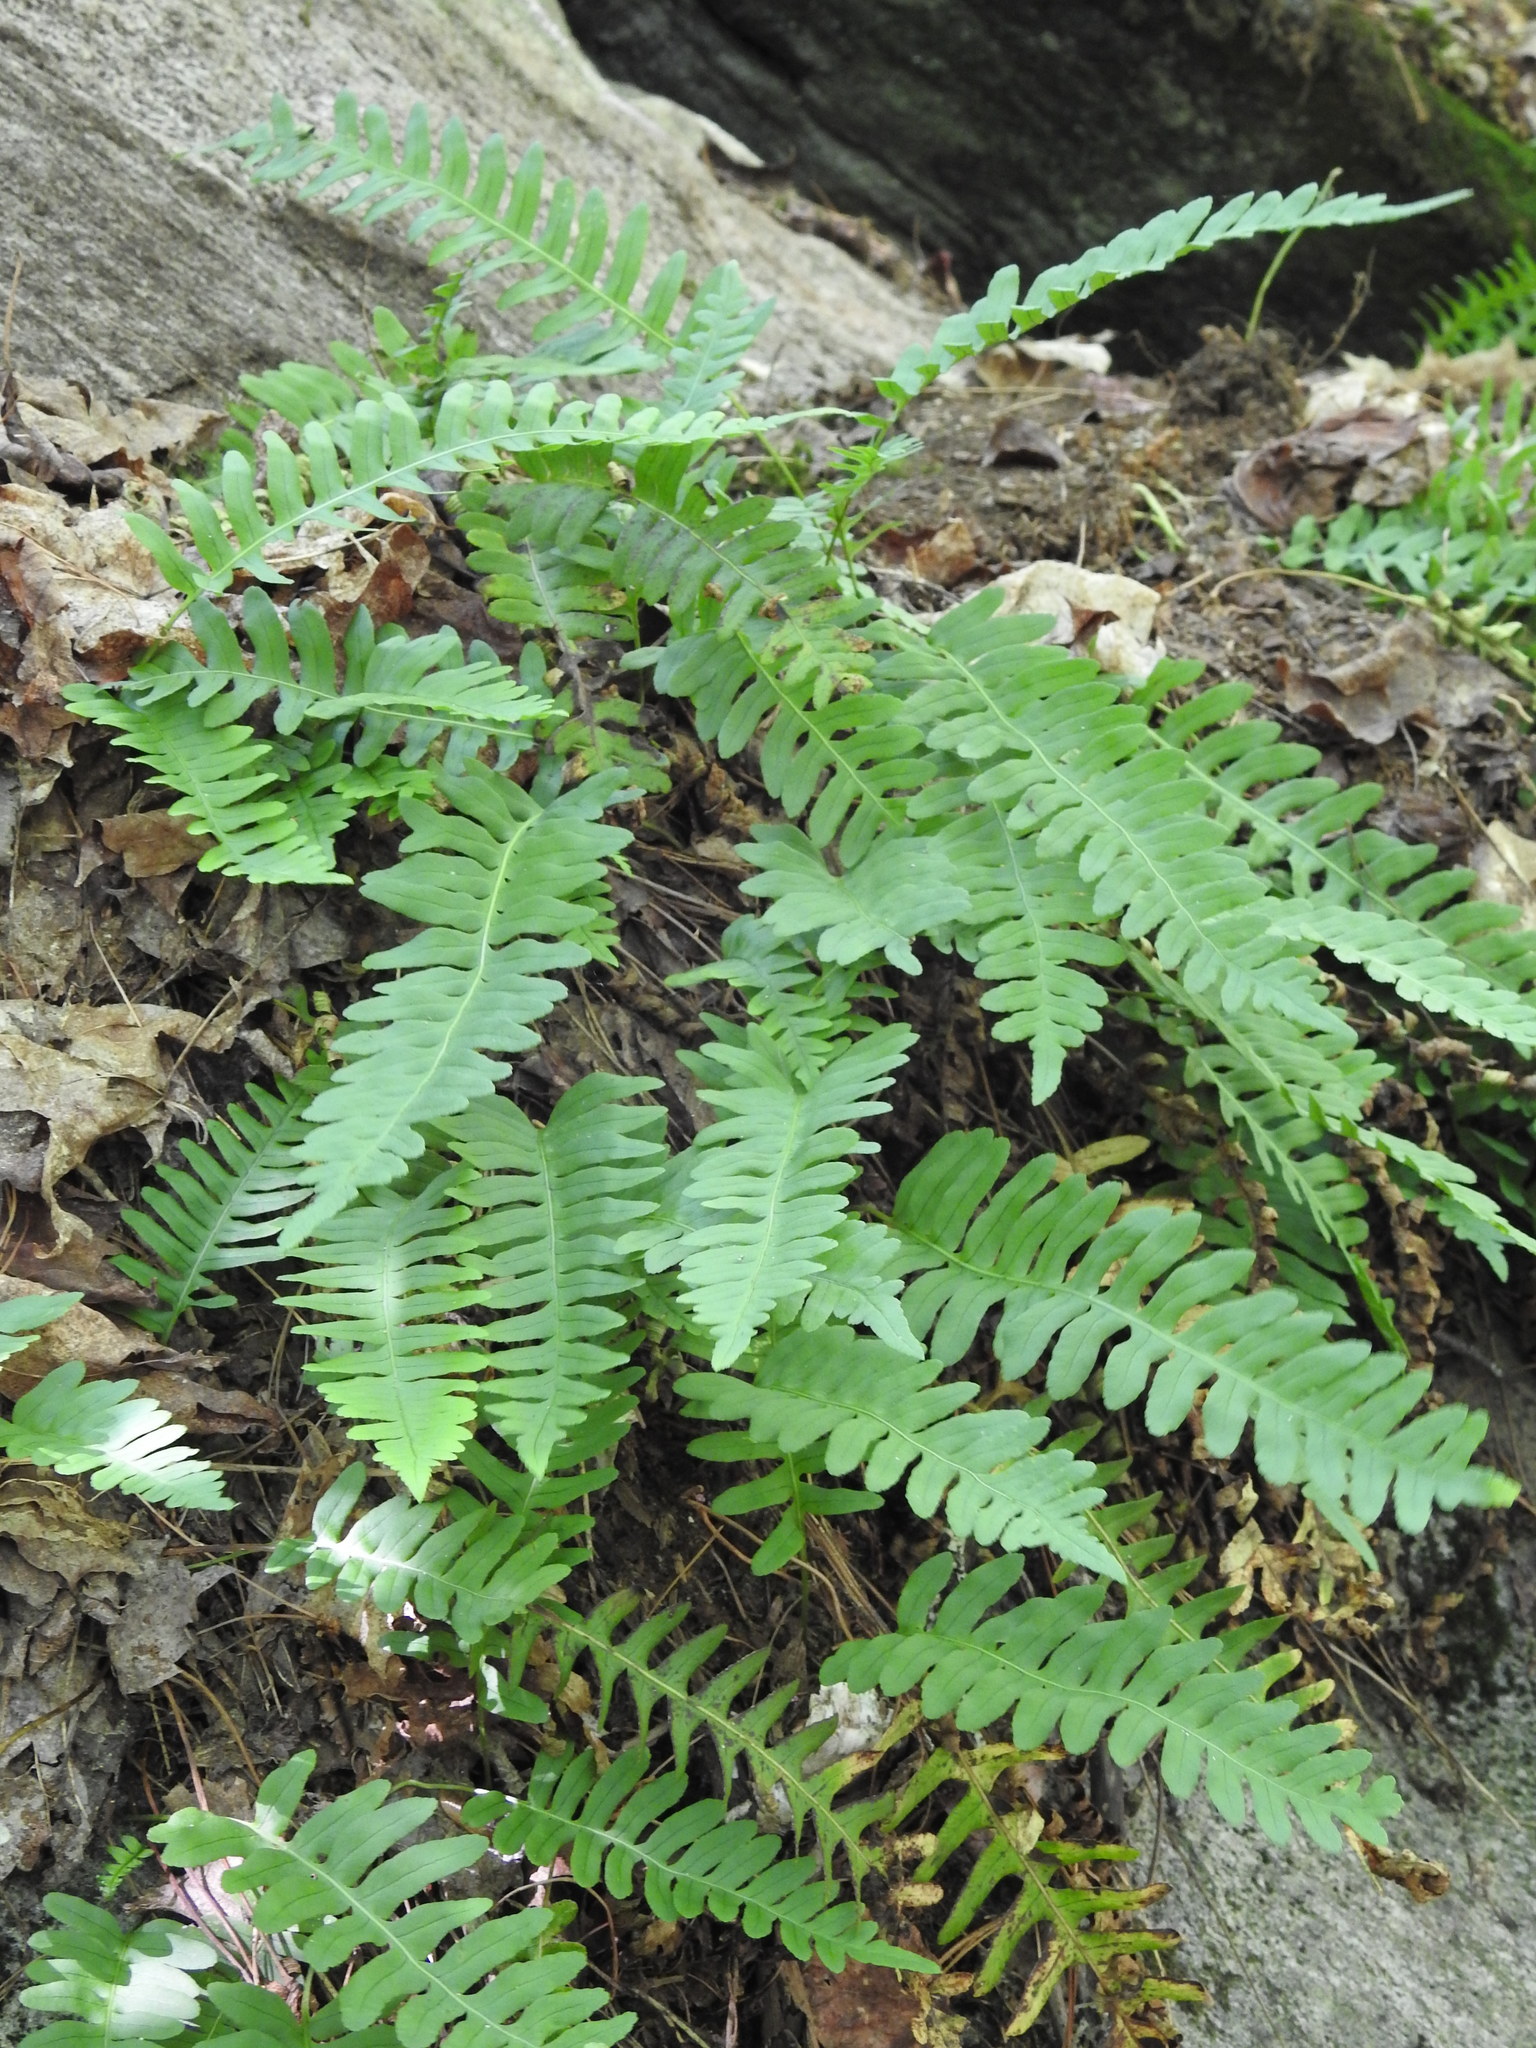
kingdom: Plantae
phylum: Tracheophyta
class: Polypodiopsida
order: Polypodiales
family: Polypodiaceae
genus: Polypodium
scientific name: Polypodium virginianum
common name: American wall fern
